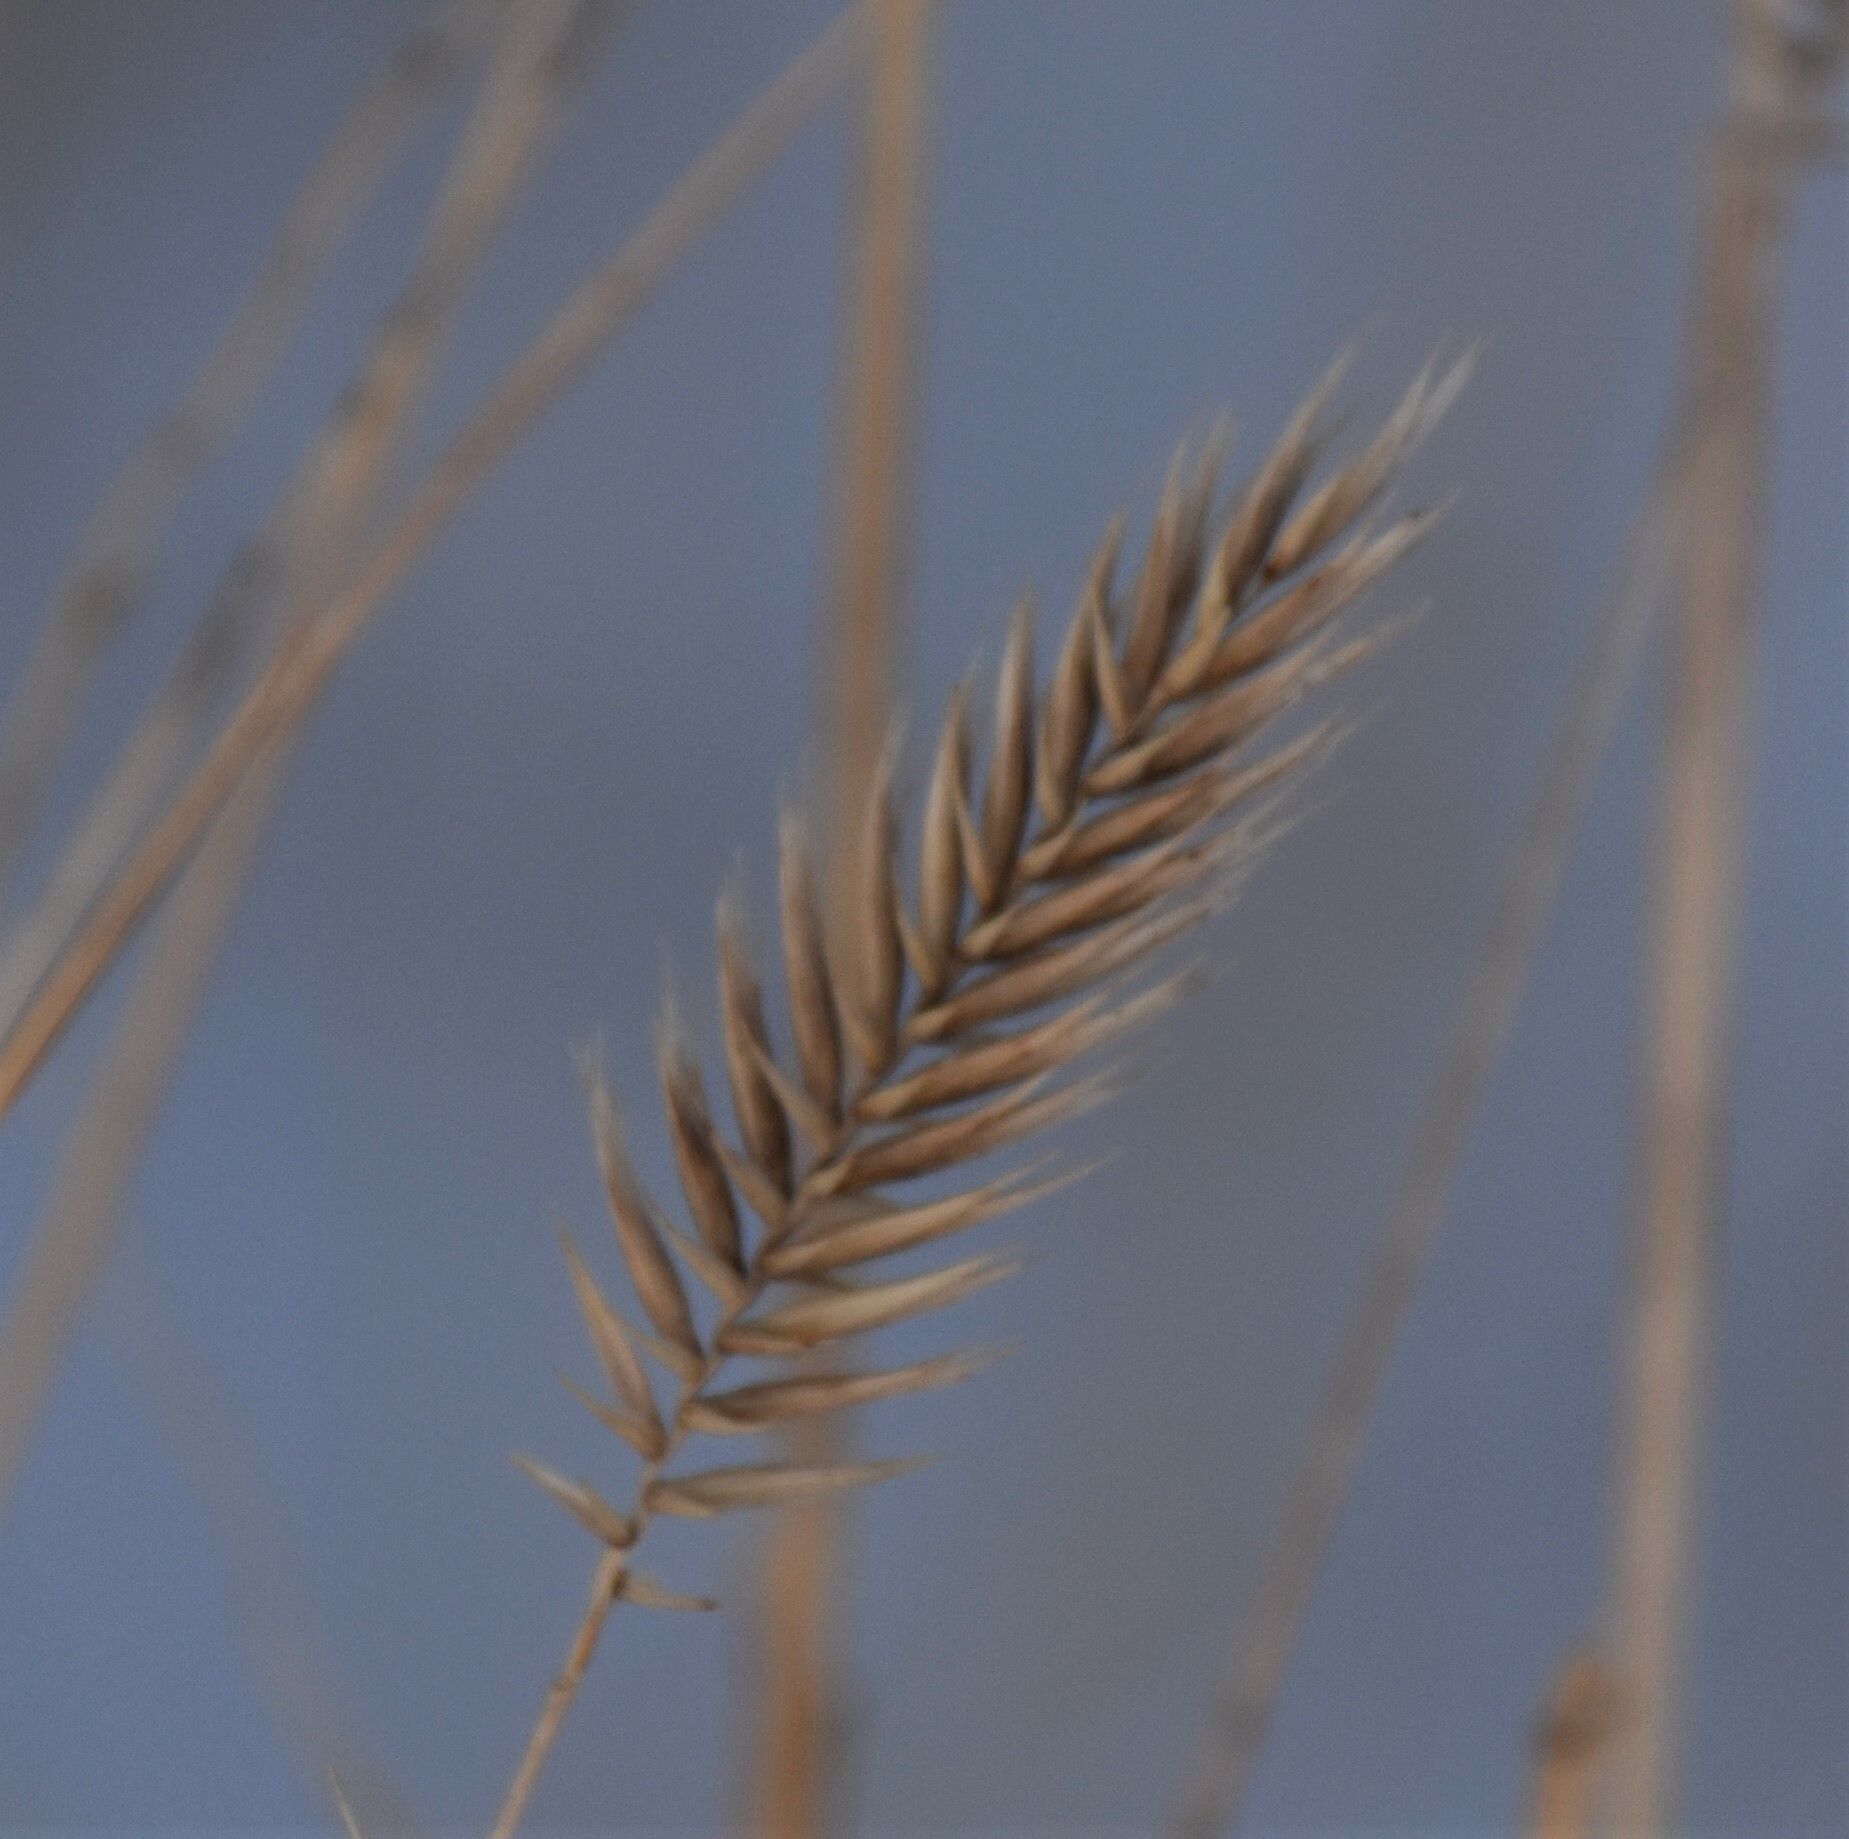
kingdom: Plantae
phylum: Tracheophyta
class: Liliopsida
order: Poales
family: Poaceae
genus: Agropyron
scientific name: Agropyron cristatum
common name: Crested wheatgrass
